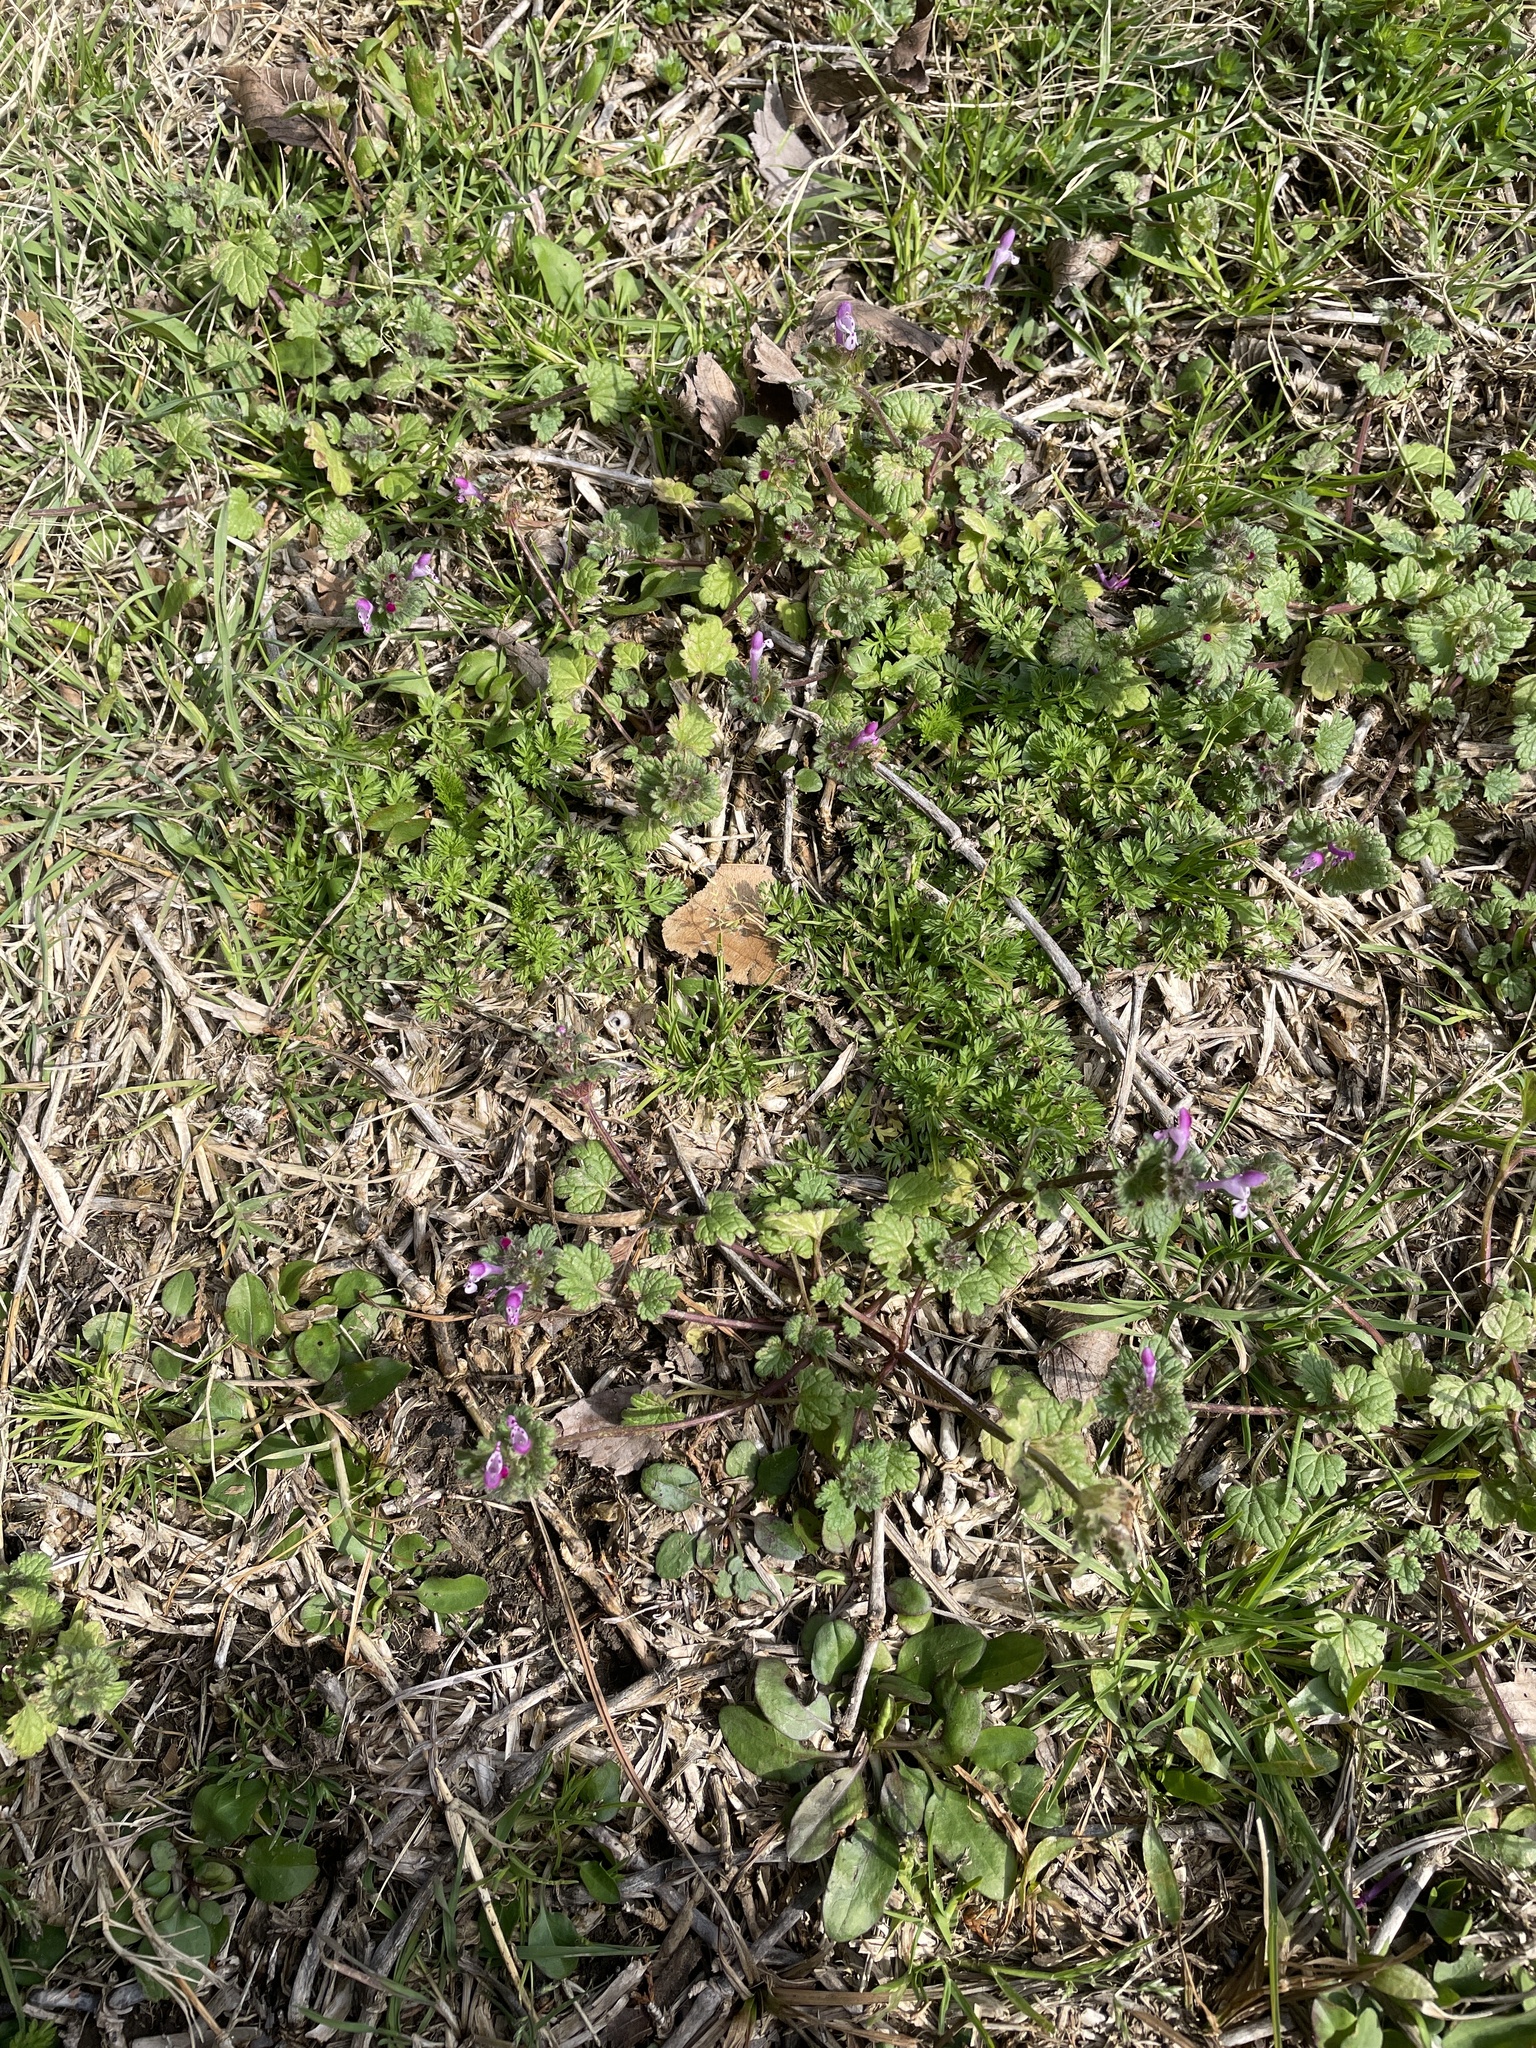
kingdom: Plantae
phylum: Tracheophyta
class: Magnoliopsida
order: Lamiales
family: Lamiaceae
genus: Lamium
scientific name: Lamium amplexicaule
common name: Henbit dead-nettle
